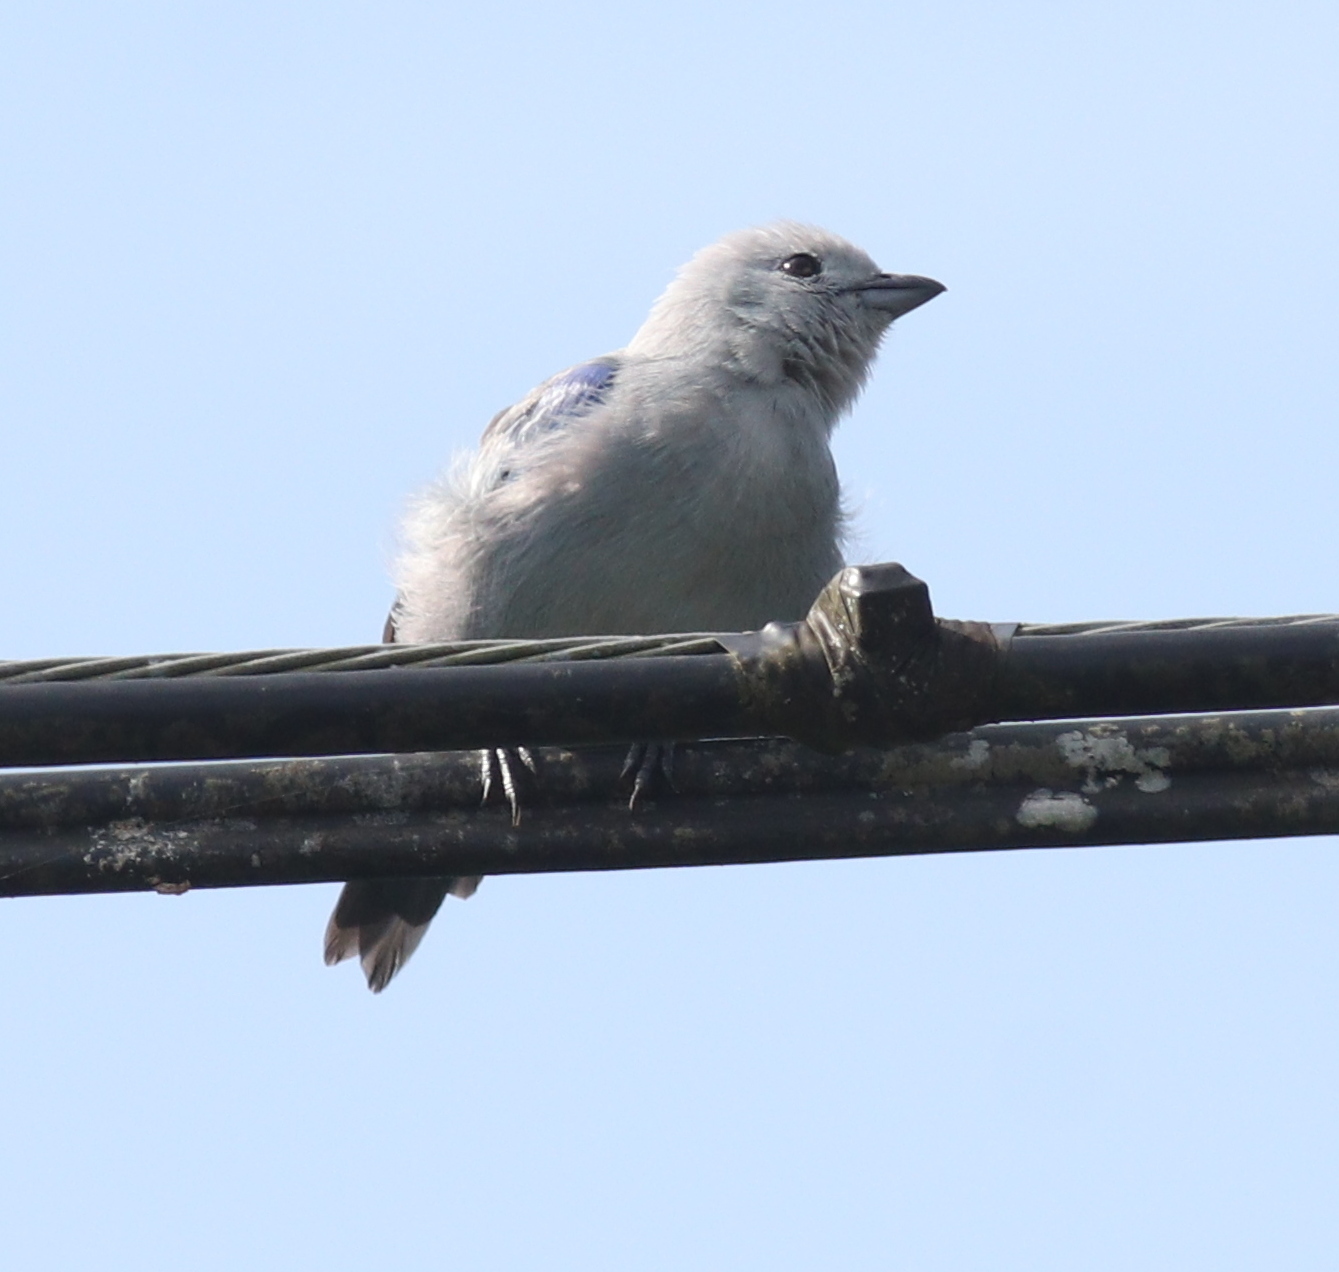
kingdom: Animalia
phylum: Chordata
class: Aves
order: Passeriformes
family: Thraupidae
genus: Thraupis
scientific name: Thraupis episcopus
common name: Blue-grey tanager
